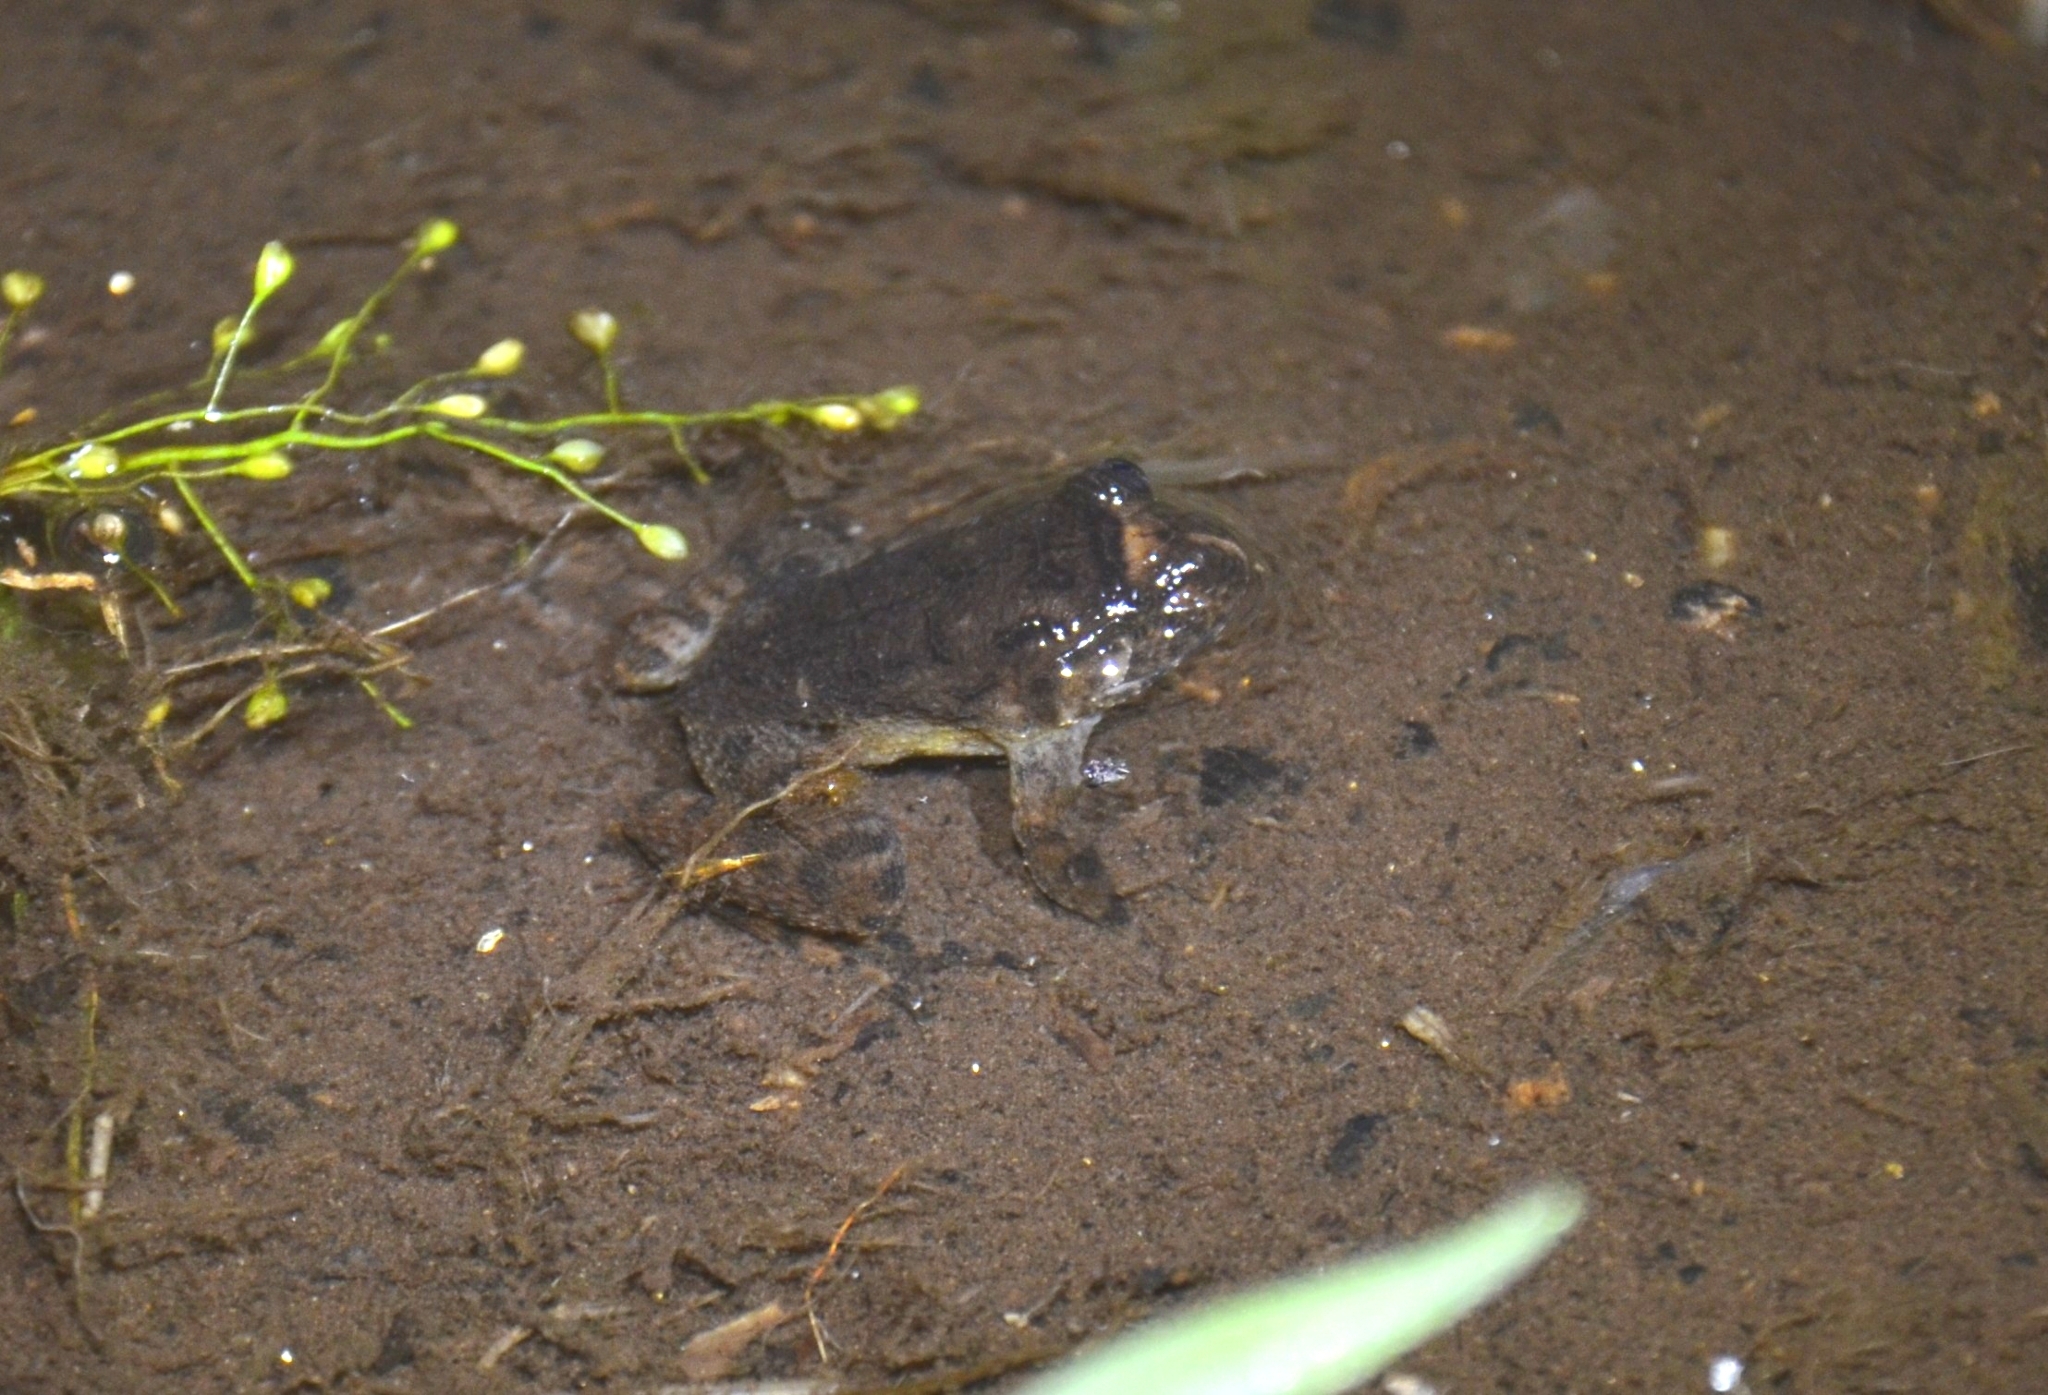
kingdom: Animalia
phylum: Chordata
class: Amphibia
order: Anura
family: Nyctibatrachidae
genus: Nyctibatrachus
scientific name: Nyctibatrachus petraeus
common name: Castle rock night frog
